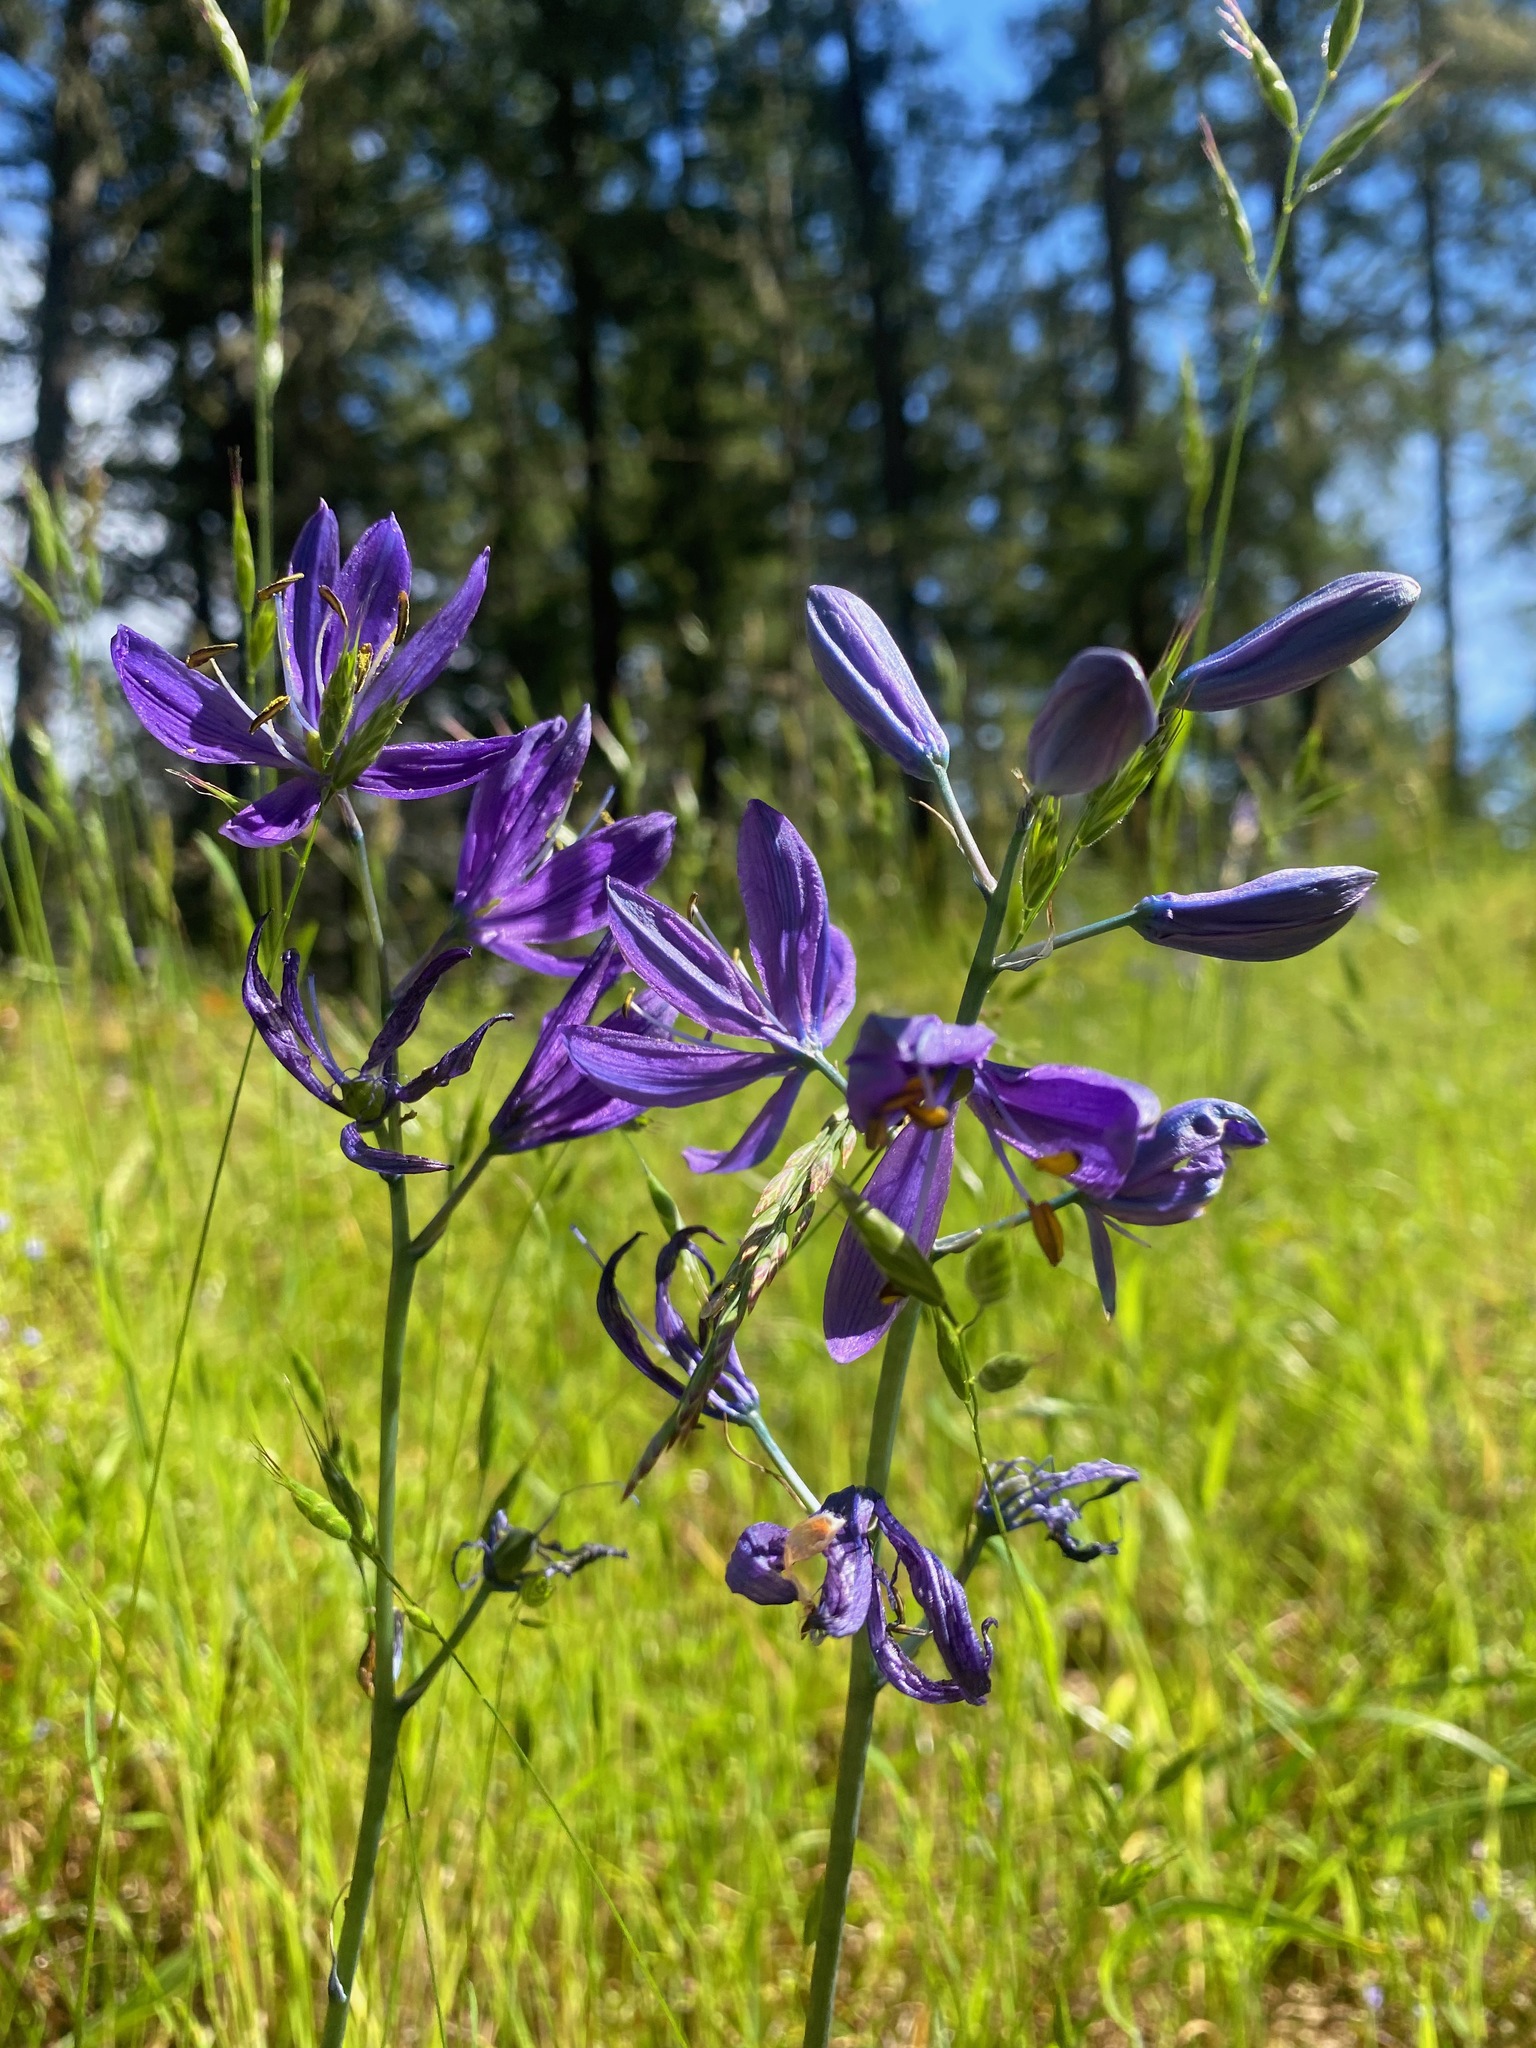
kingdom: Plantae
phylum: Tracheophyta
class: Liliopsida
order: Asparagales
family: Asparagaceae
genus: Camassia
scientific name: Camassia quamash
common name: Common camas
